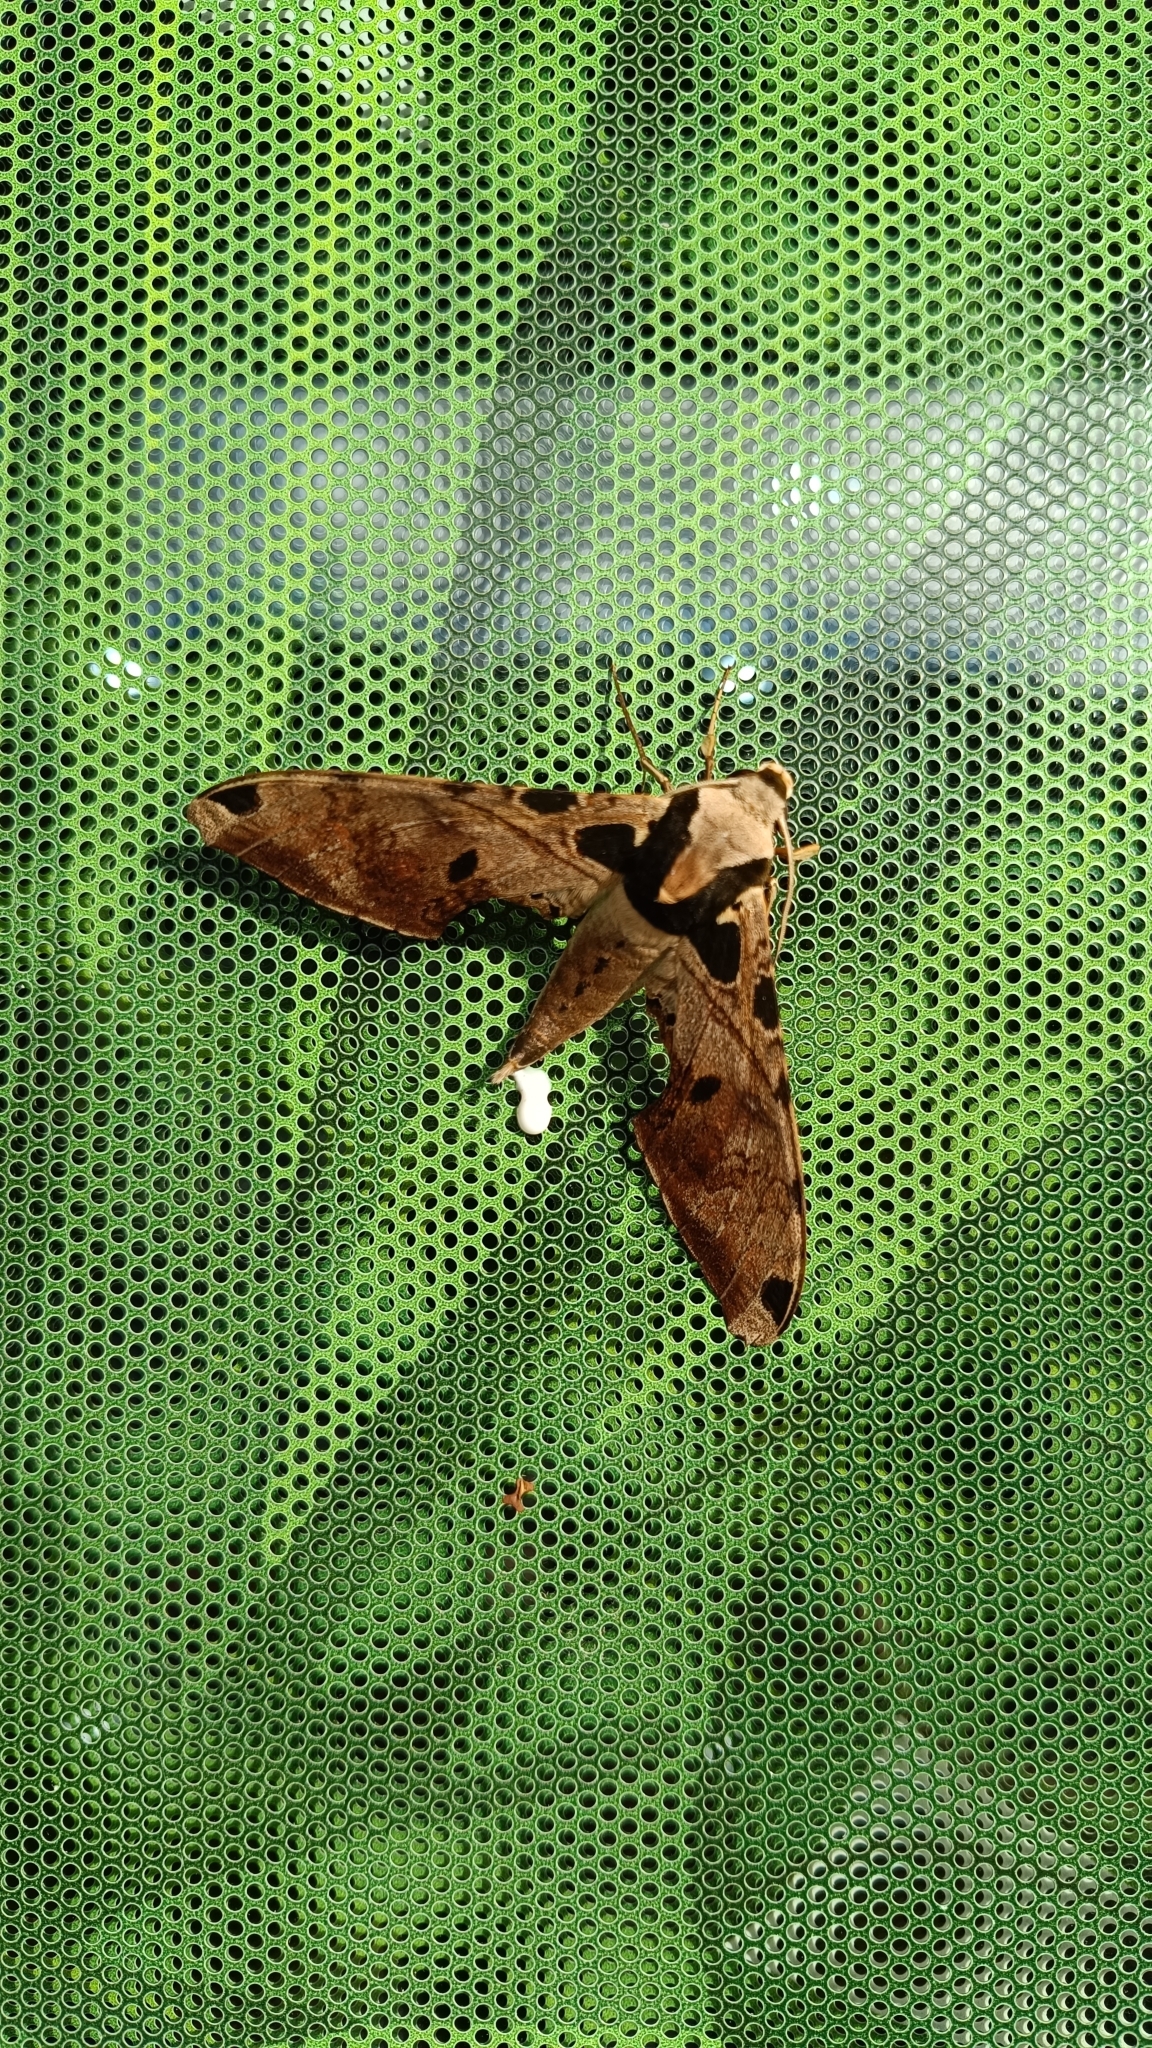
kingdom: Animalia
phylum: Arthropoda
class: Insecta
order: Lepidoptera
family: Sphingidae
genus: Adhemarius
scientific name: Adhemarius palmeri
